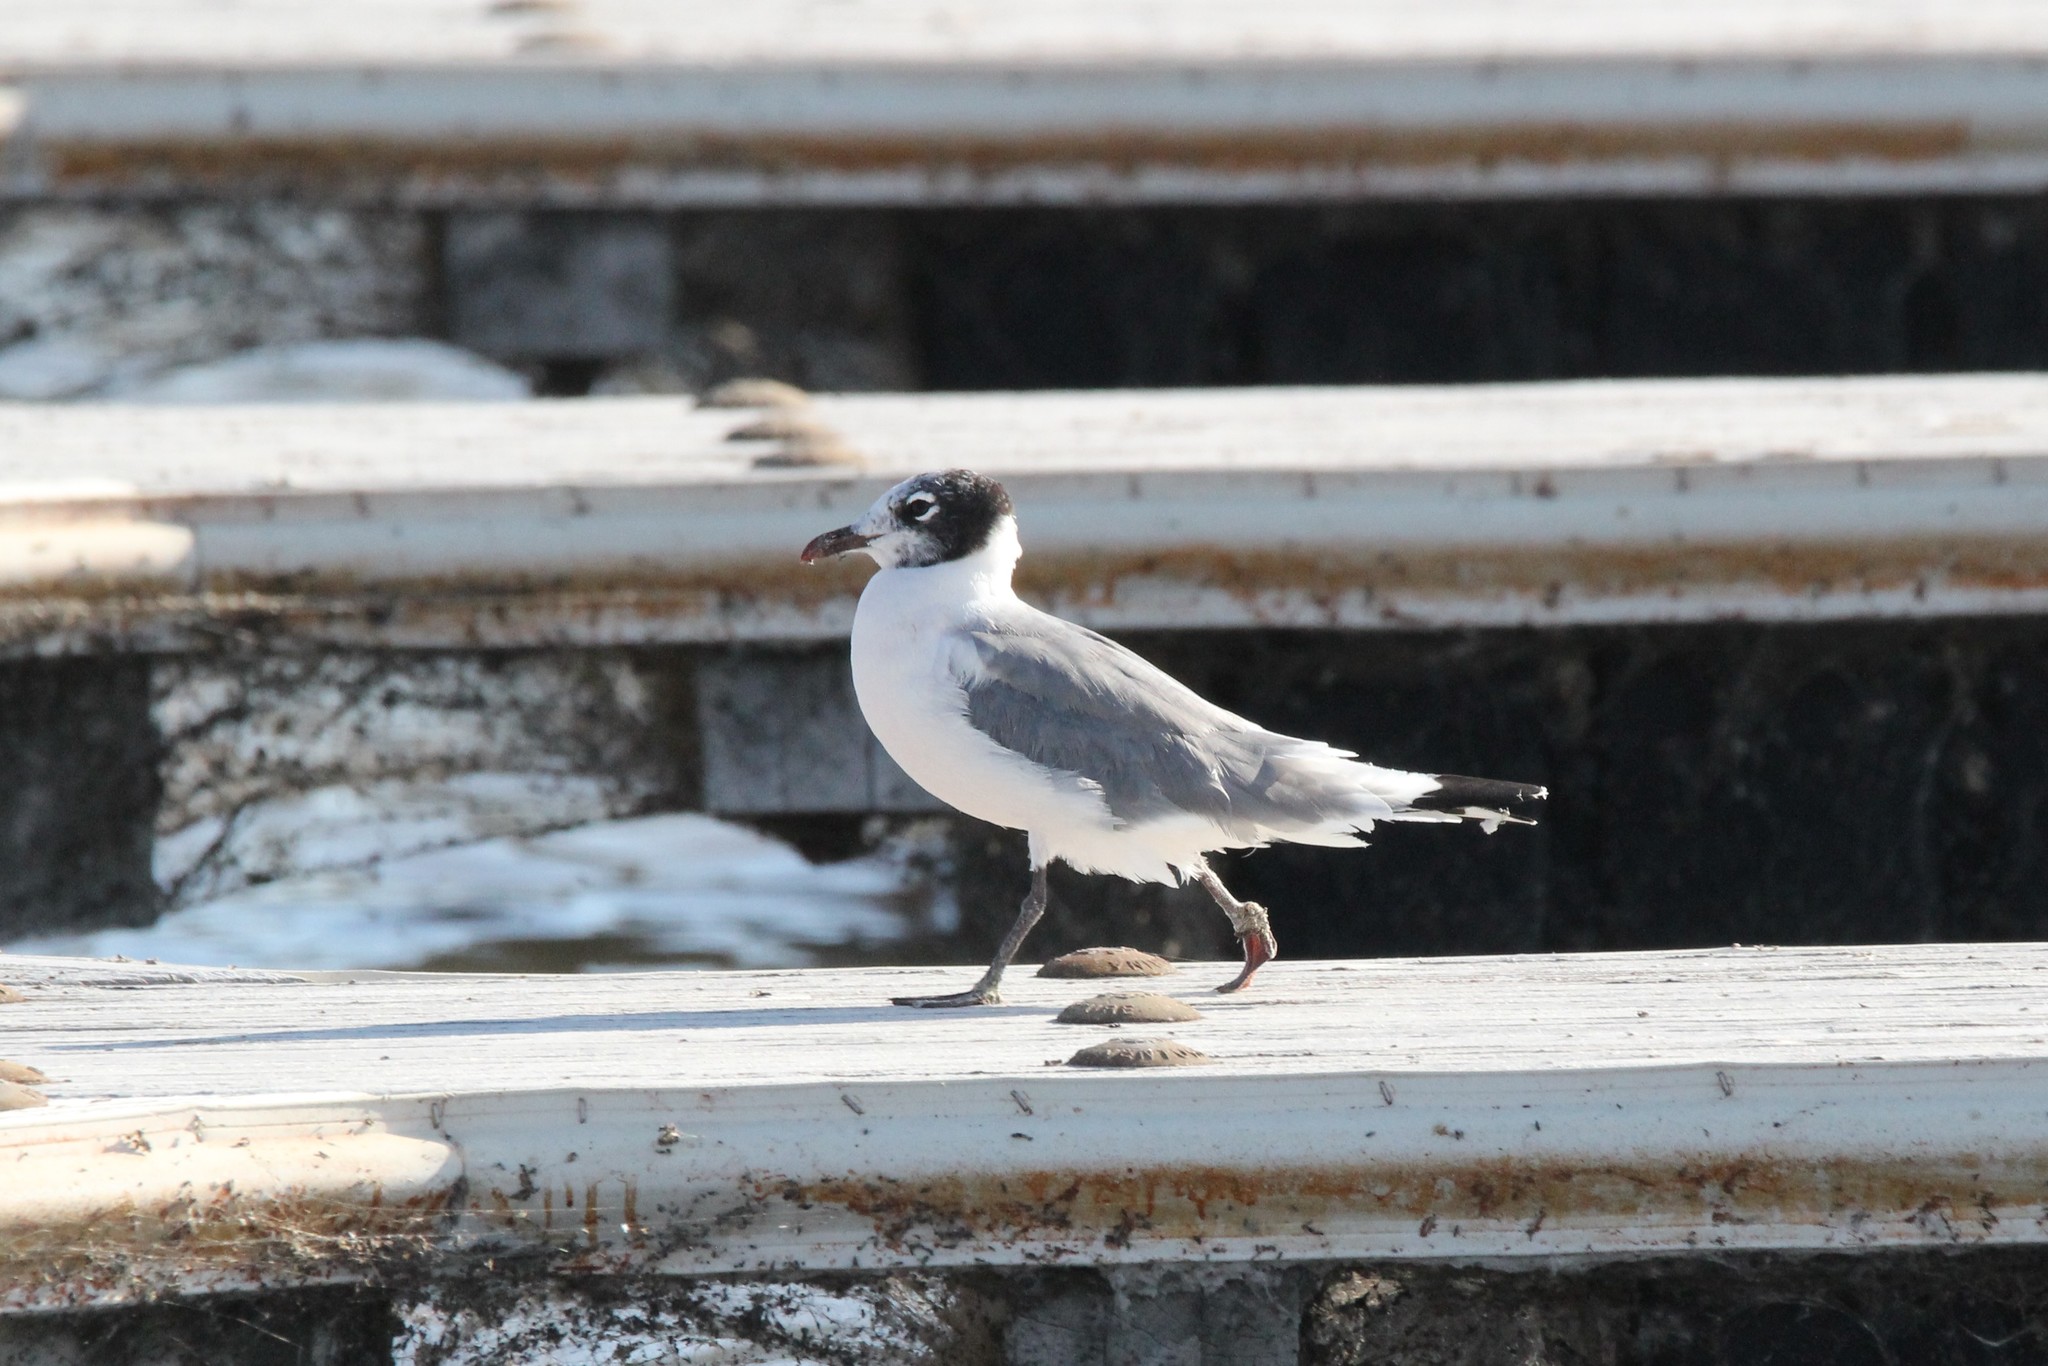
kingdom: Animalia
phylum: Chordata
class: Aves
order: Charadriiformes
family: Laridae
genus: Leucophaeus
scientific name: Leucophaeus pipixcan
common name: Franklin's gull
